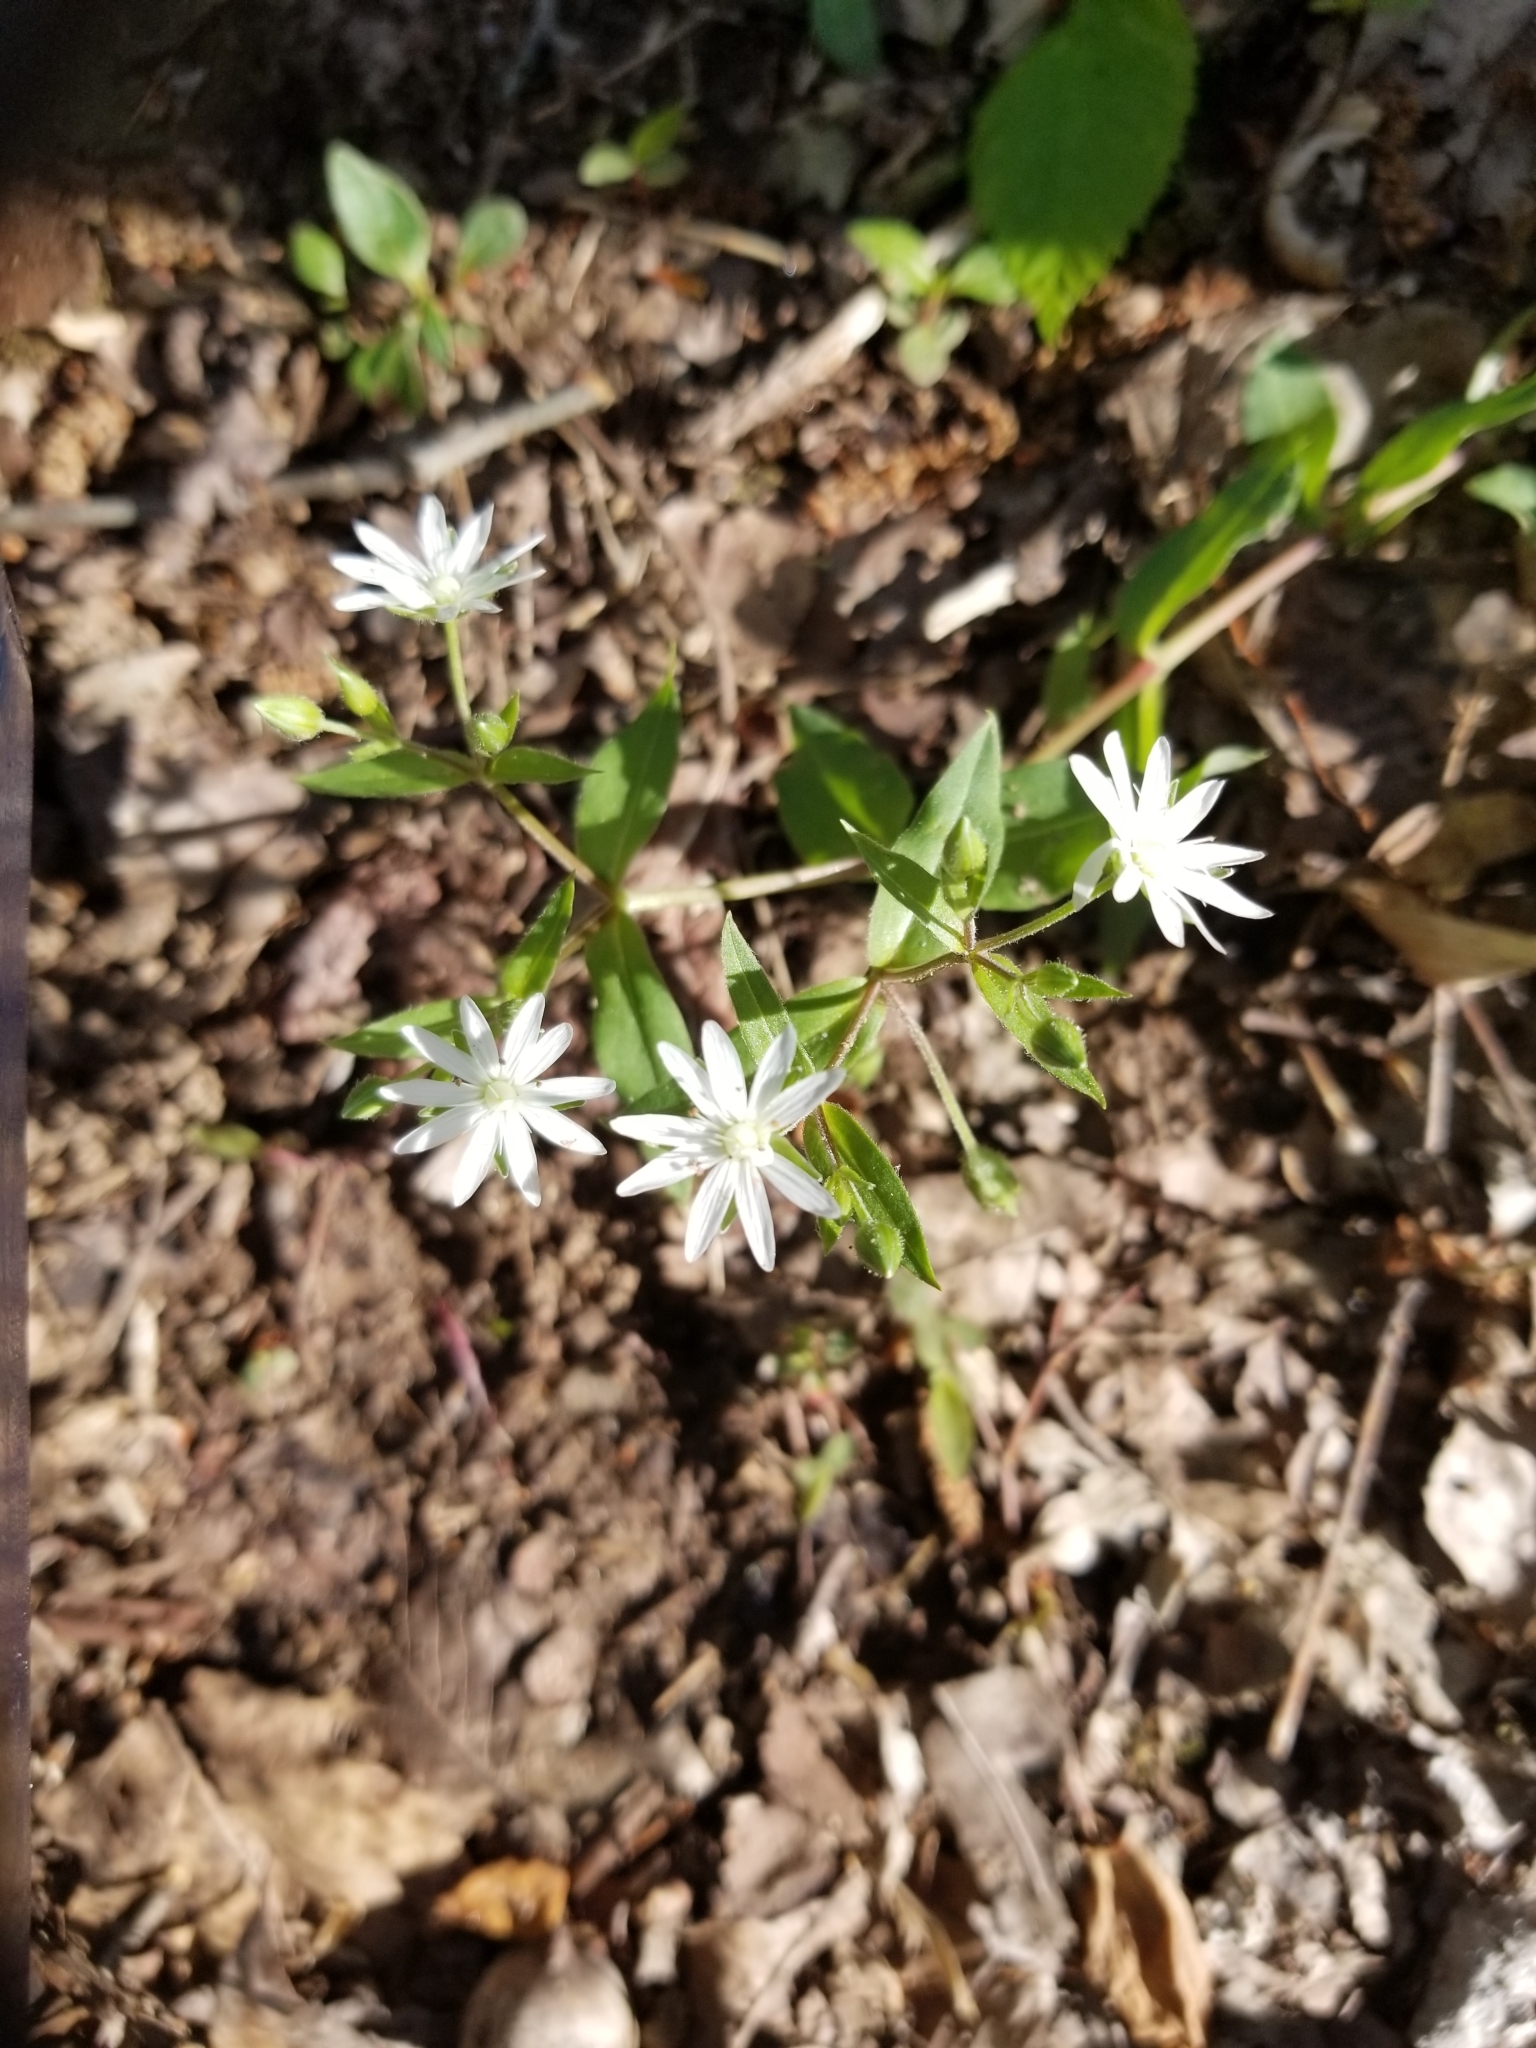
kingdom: Plantae
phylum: Tracheophyta
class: Magnoliopsida
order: Caryophyllales
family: Caryophyllaceae
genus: Stellaria
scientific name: Stellaria pubera
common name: Star chickweed
